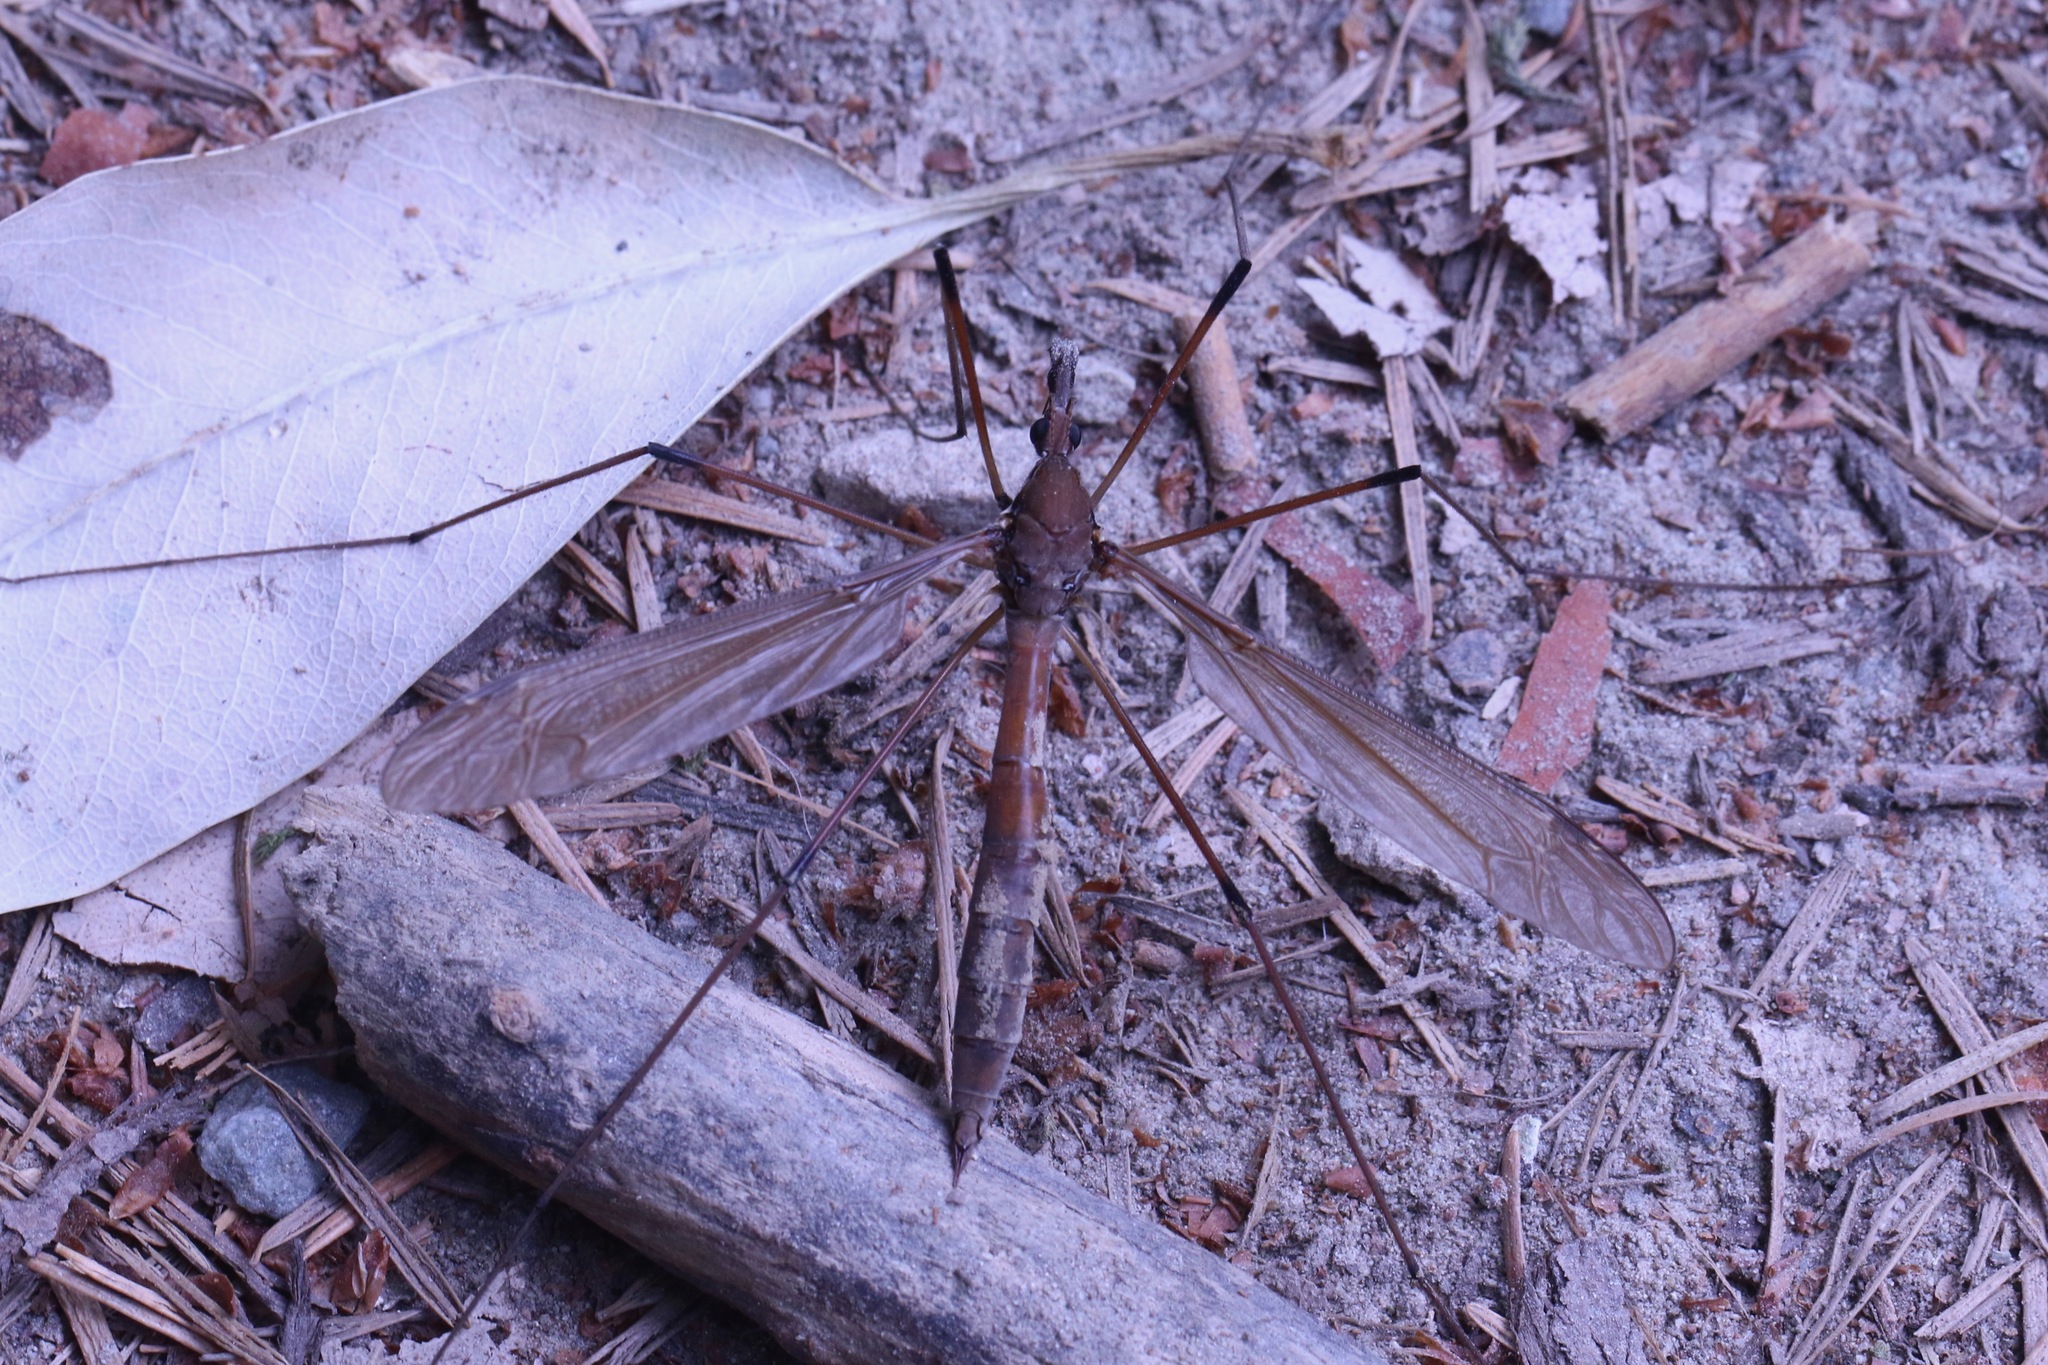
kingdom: Animalia
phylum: Arthropoda
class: Insecta
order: Diptera
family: Tipulidae
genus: Holorusia
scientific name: Holorusia hespera
